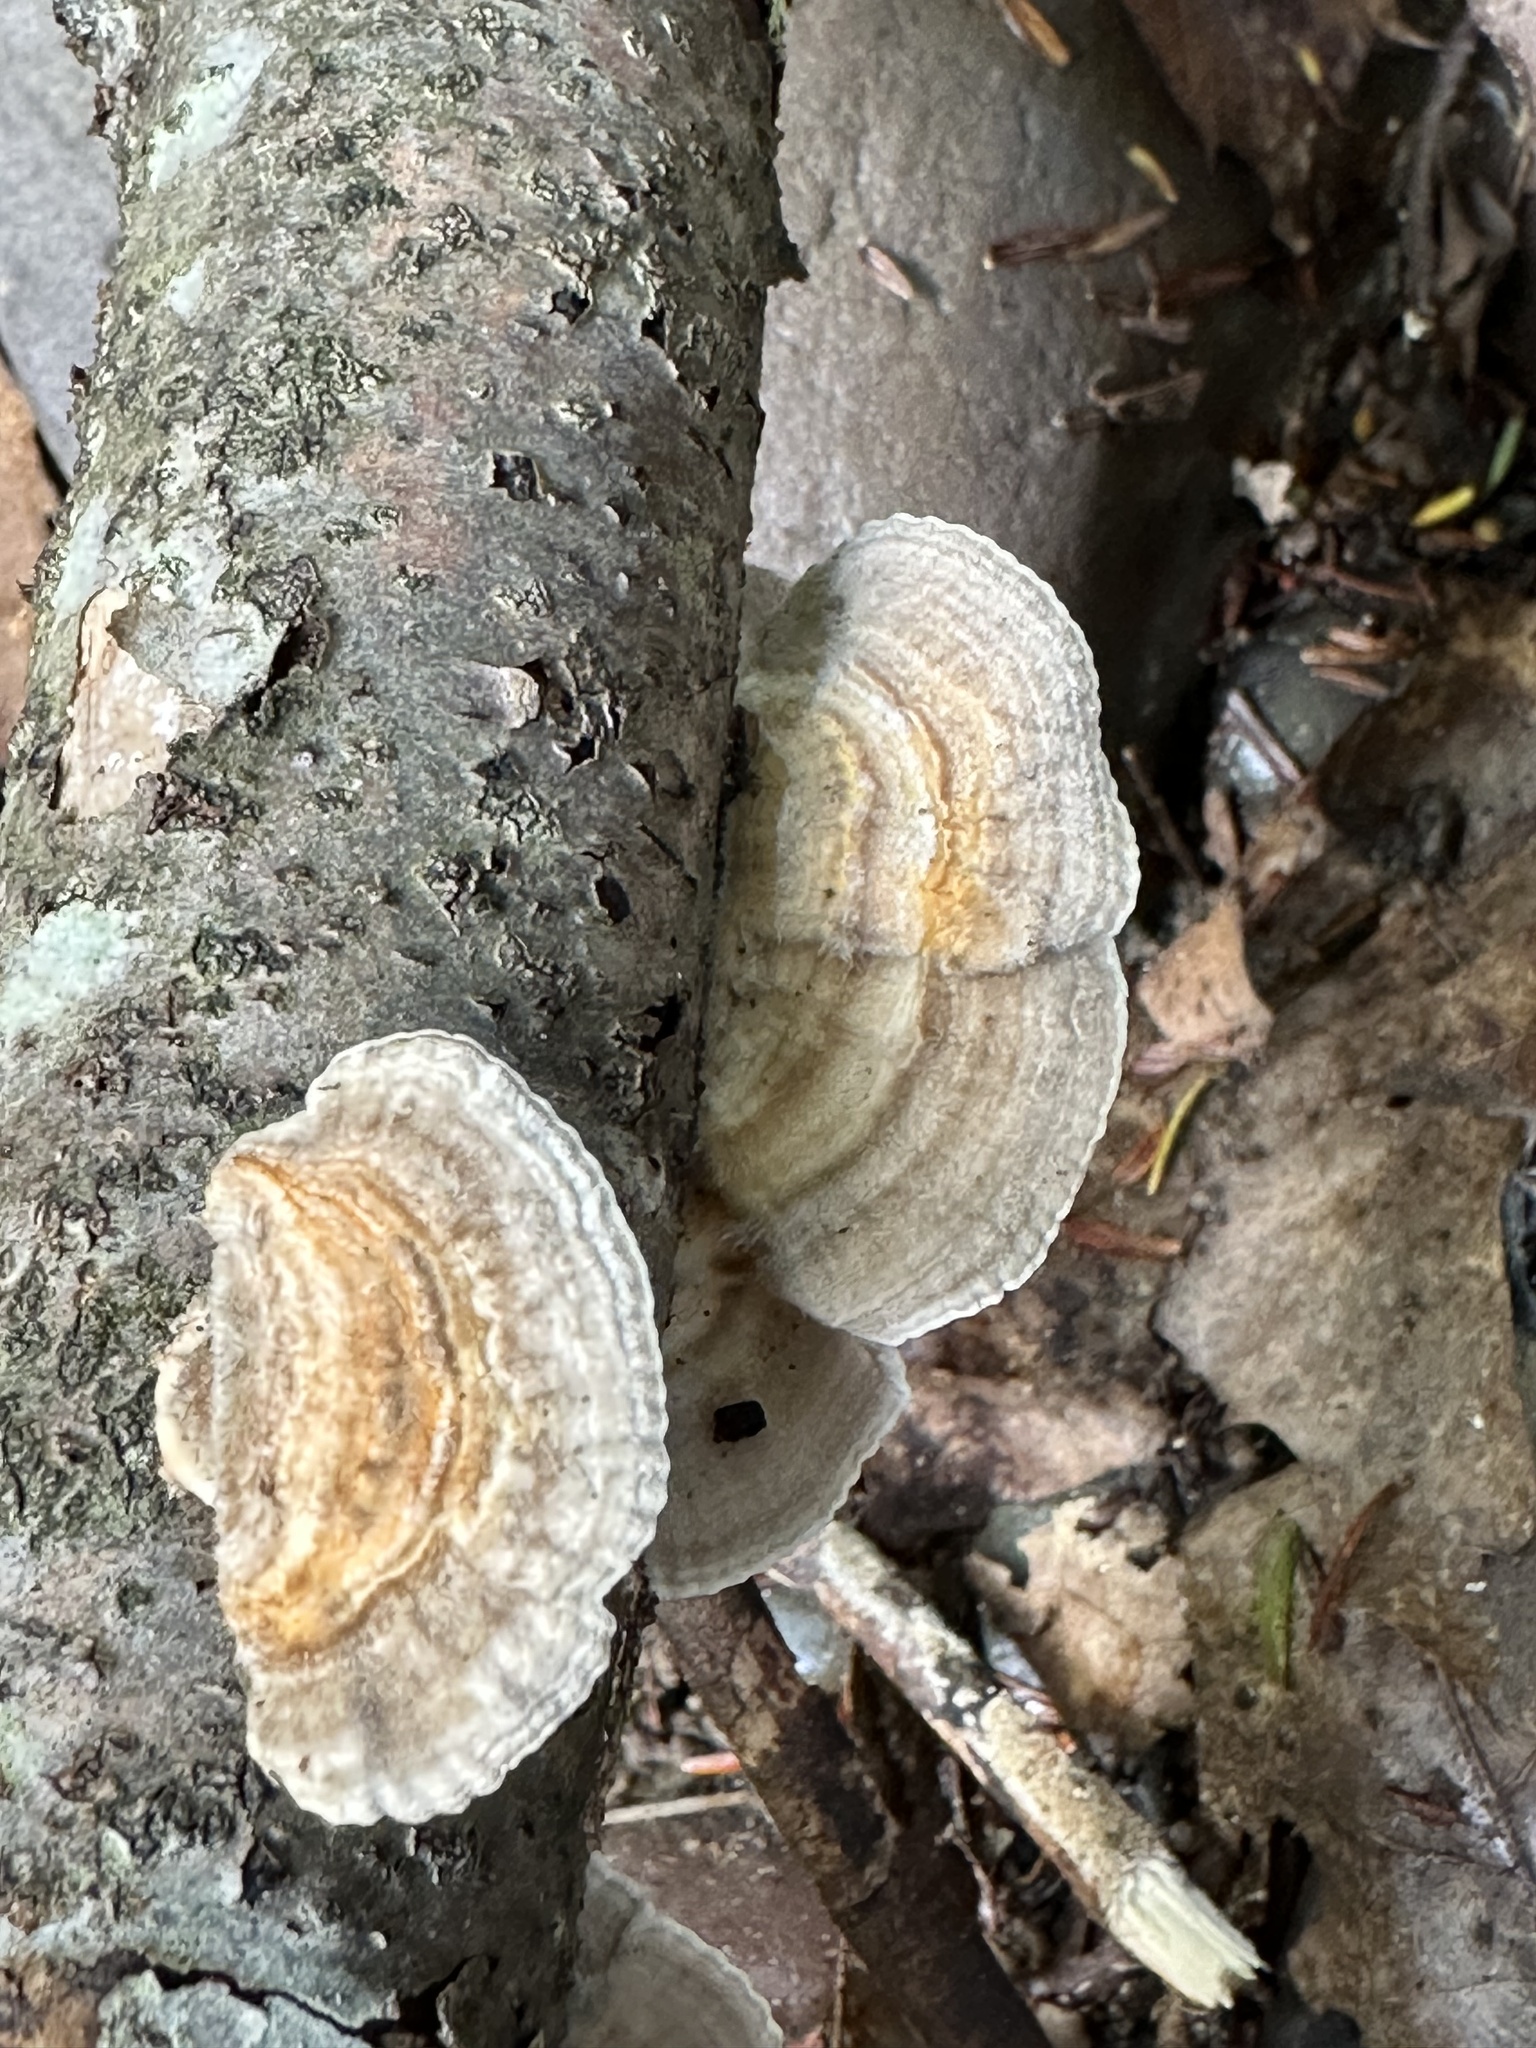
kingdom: Fungi
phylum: Basidiomycota
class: Agaricomycetes
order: Polyporales
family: Polyporaceae
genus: Lenzites
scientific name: Lenzites betulinus
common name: Birch mazegill
